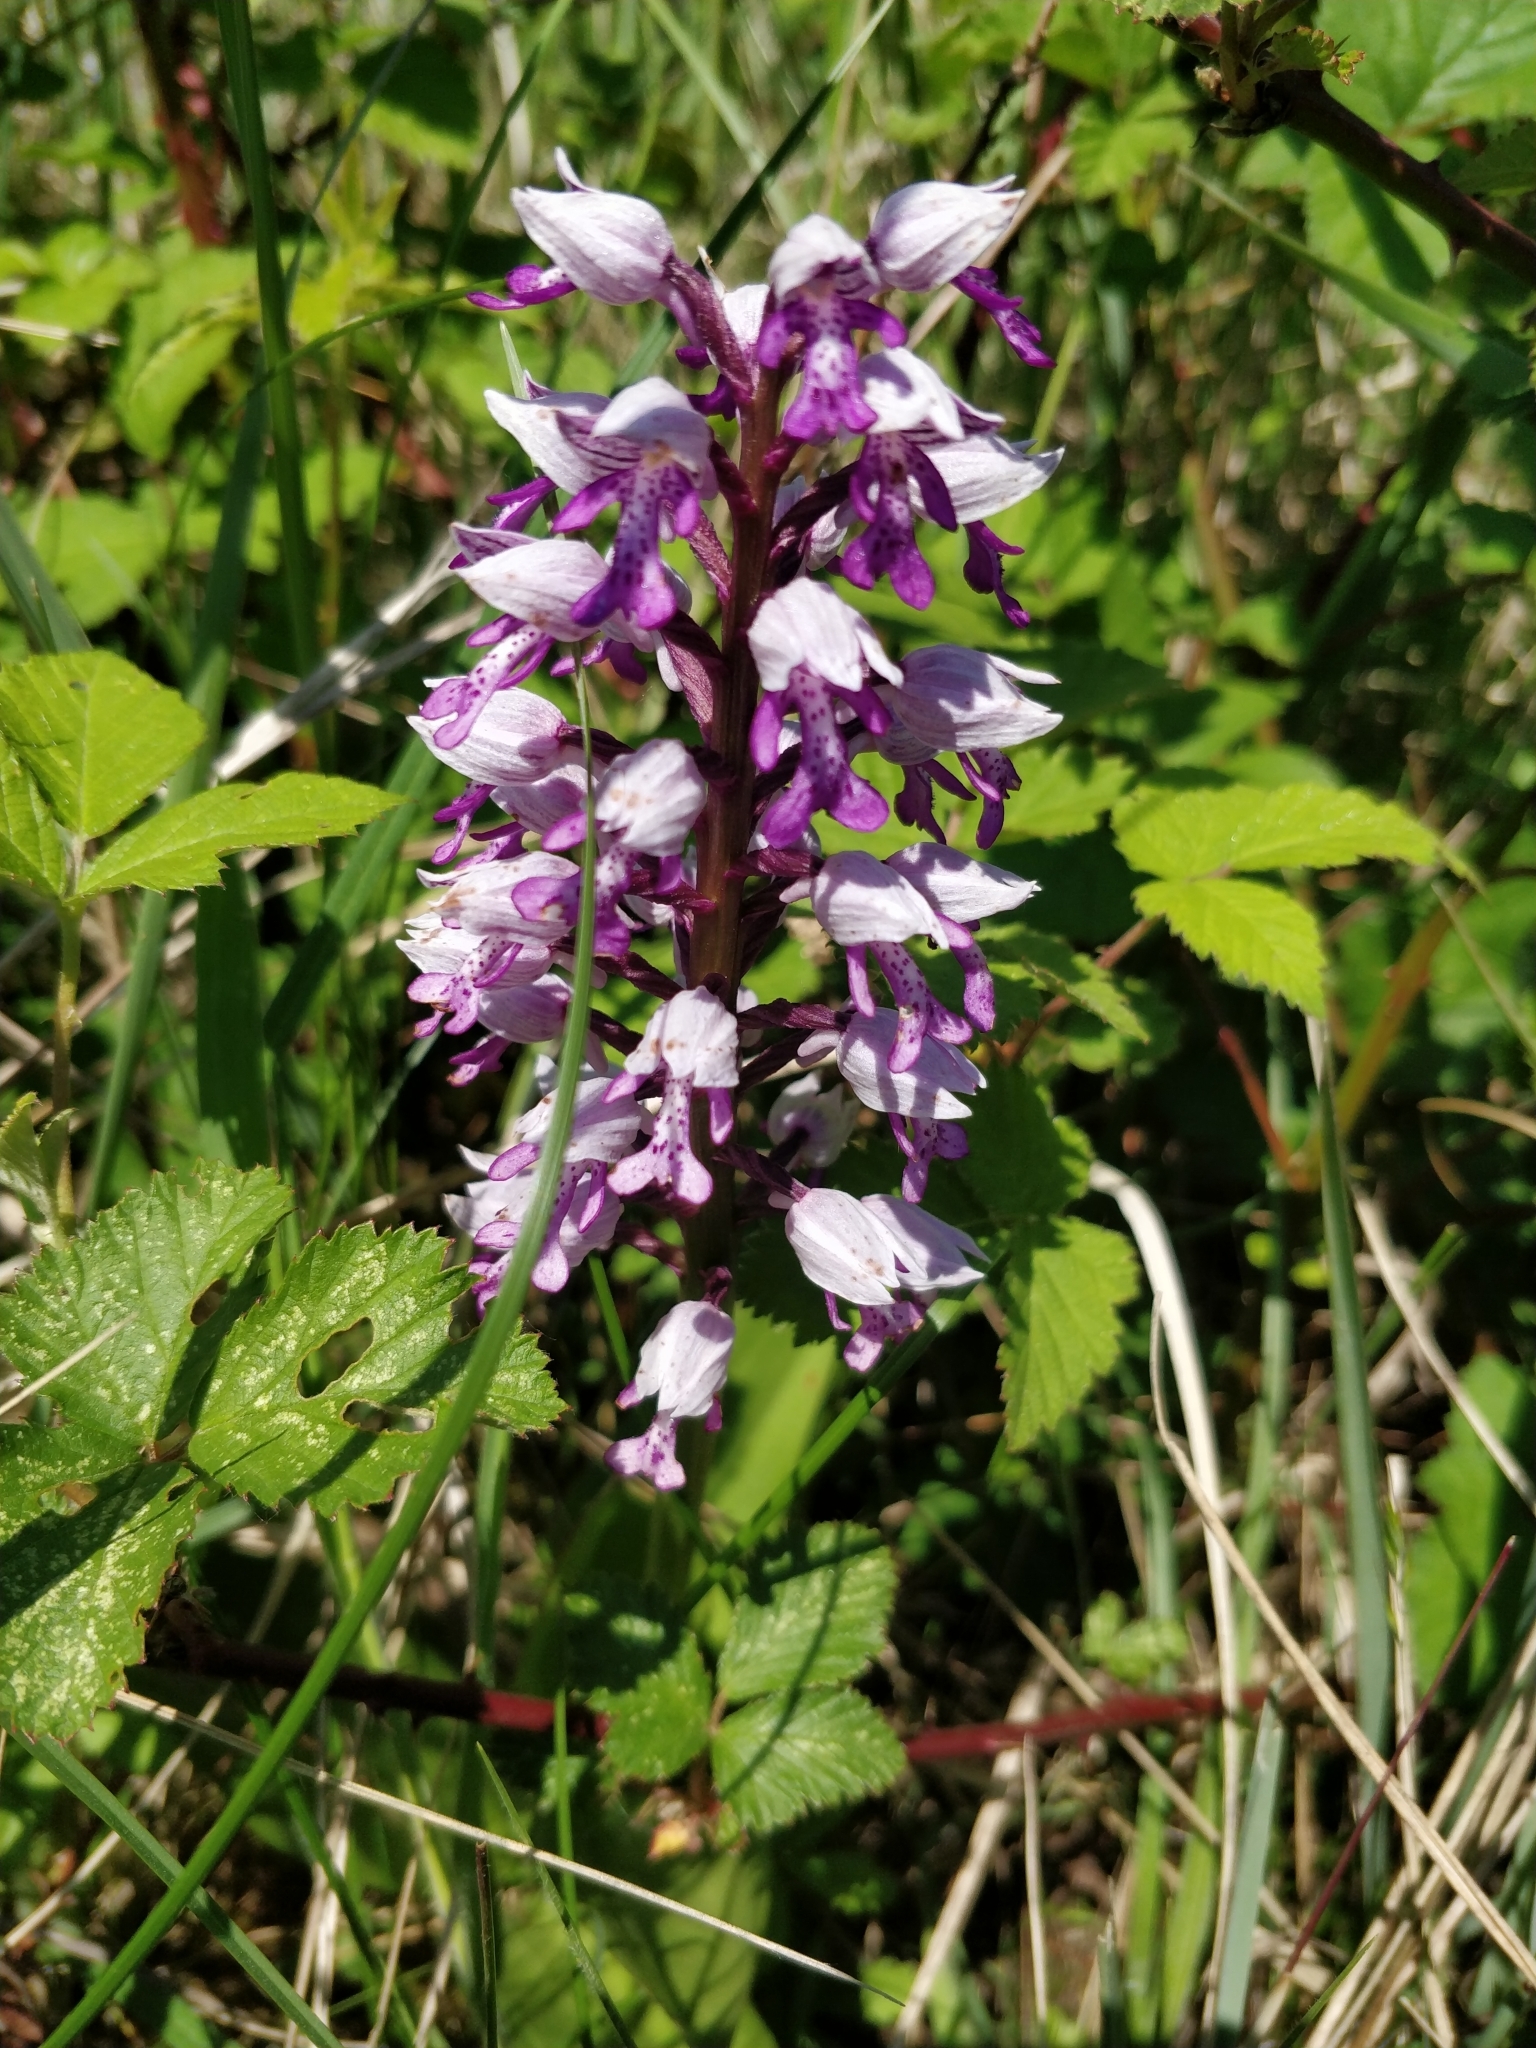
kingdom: Plantae
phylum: Tracheophyta
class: Liliopsida
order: Asparagales
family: Orchidaceae
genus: Orchis
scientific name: Orchis militaris
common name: Military orchid
